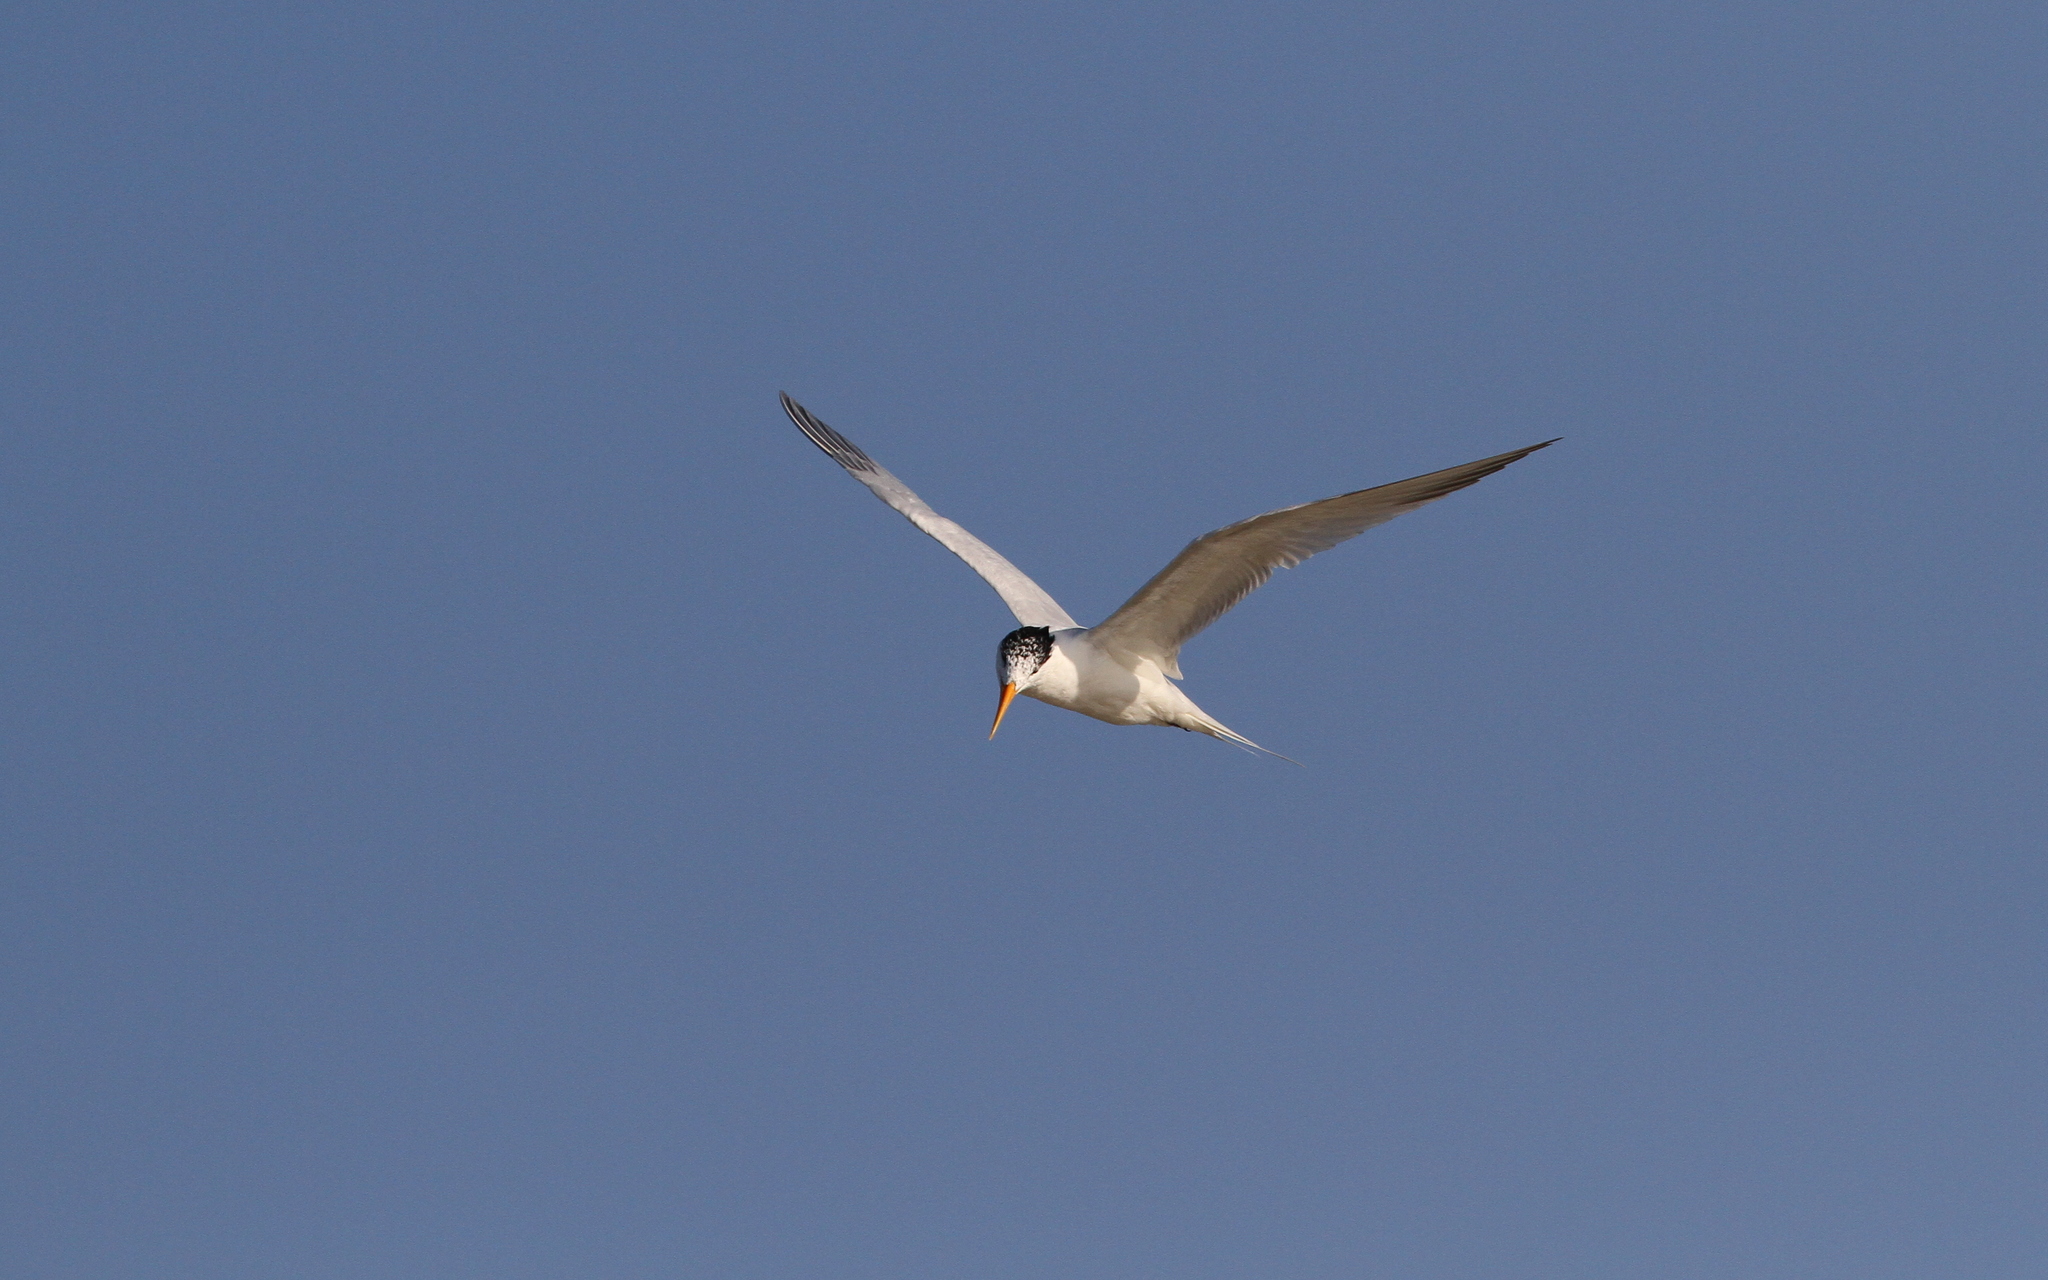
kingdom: Animalia
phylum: Chordata
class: Aves
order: Charadriiformes
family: Laridae
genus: Thalasseus
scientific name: Thalasseus albididorsalis
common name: West african crested tern
